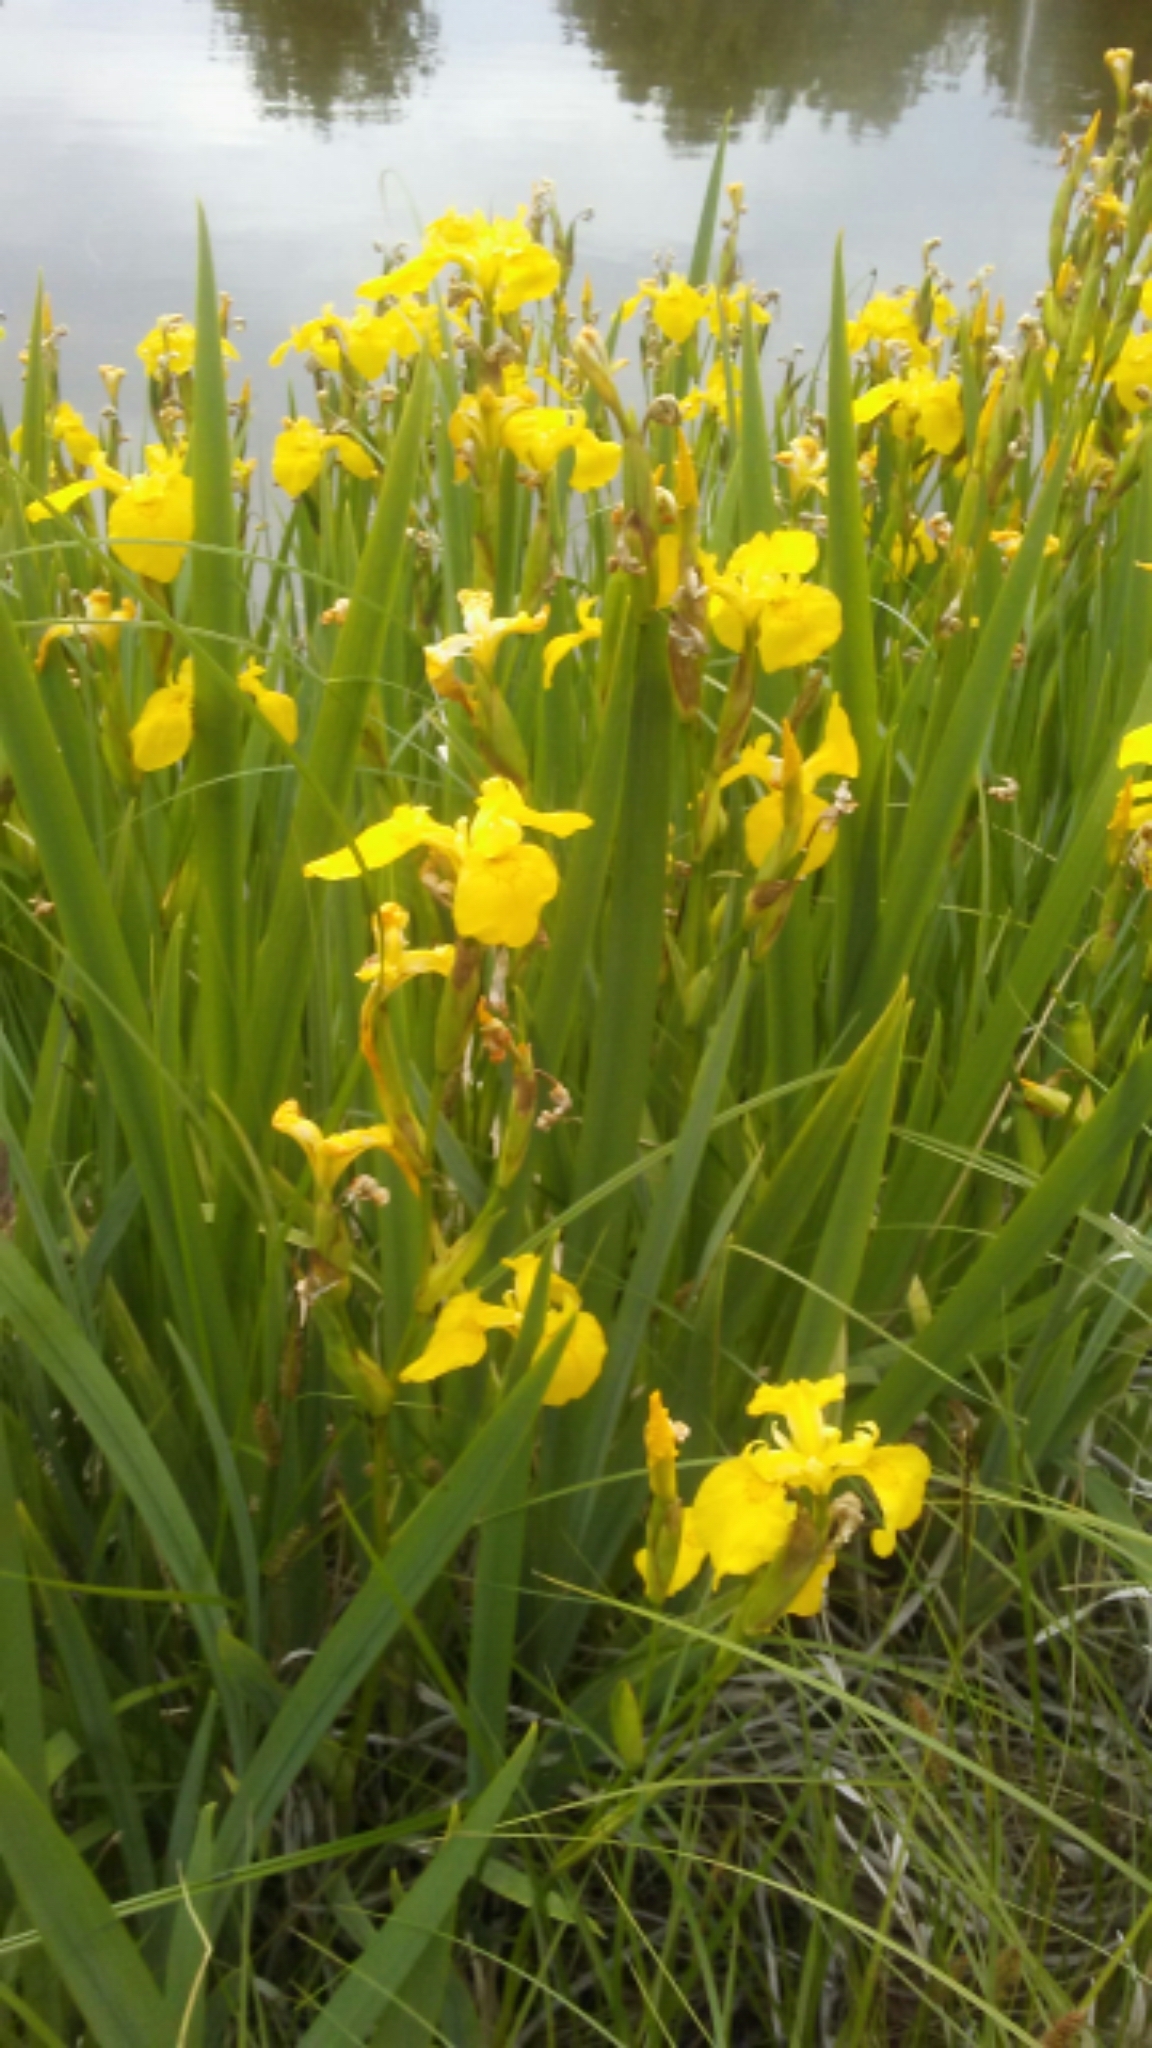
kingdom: Plantae
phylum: Tracheophyta
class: Liliopsida
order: Asparagales
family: Iridaceae
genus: Iris
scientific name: Iris pseudacorus
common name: Yellow flag
